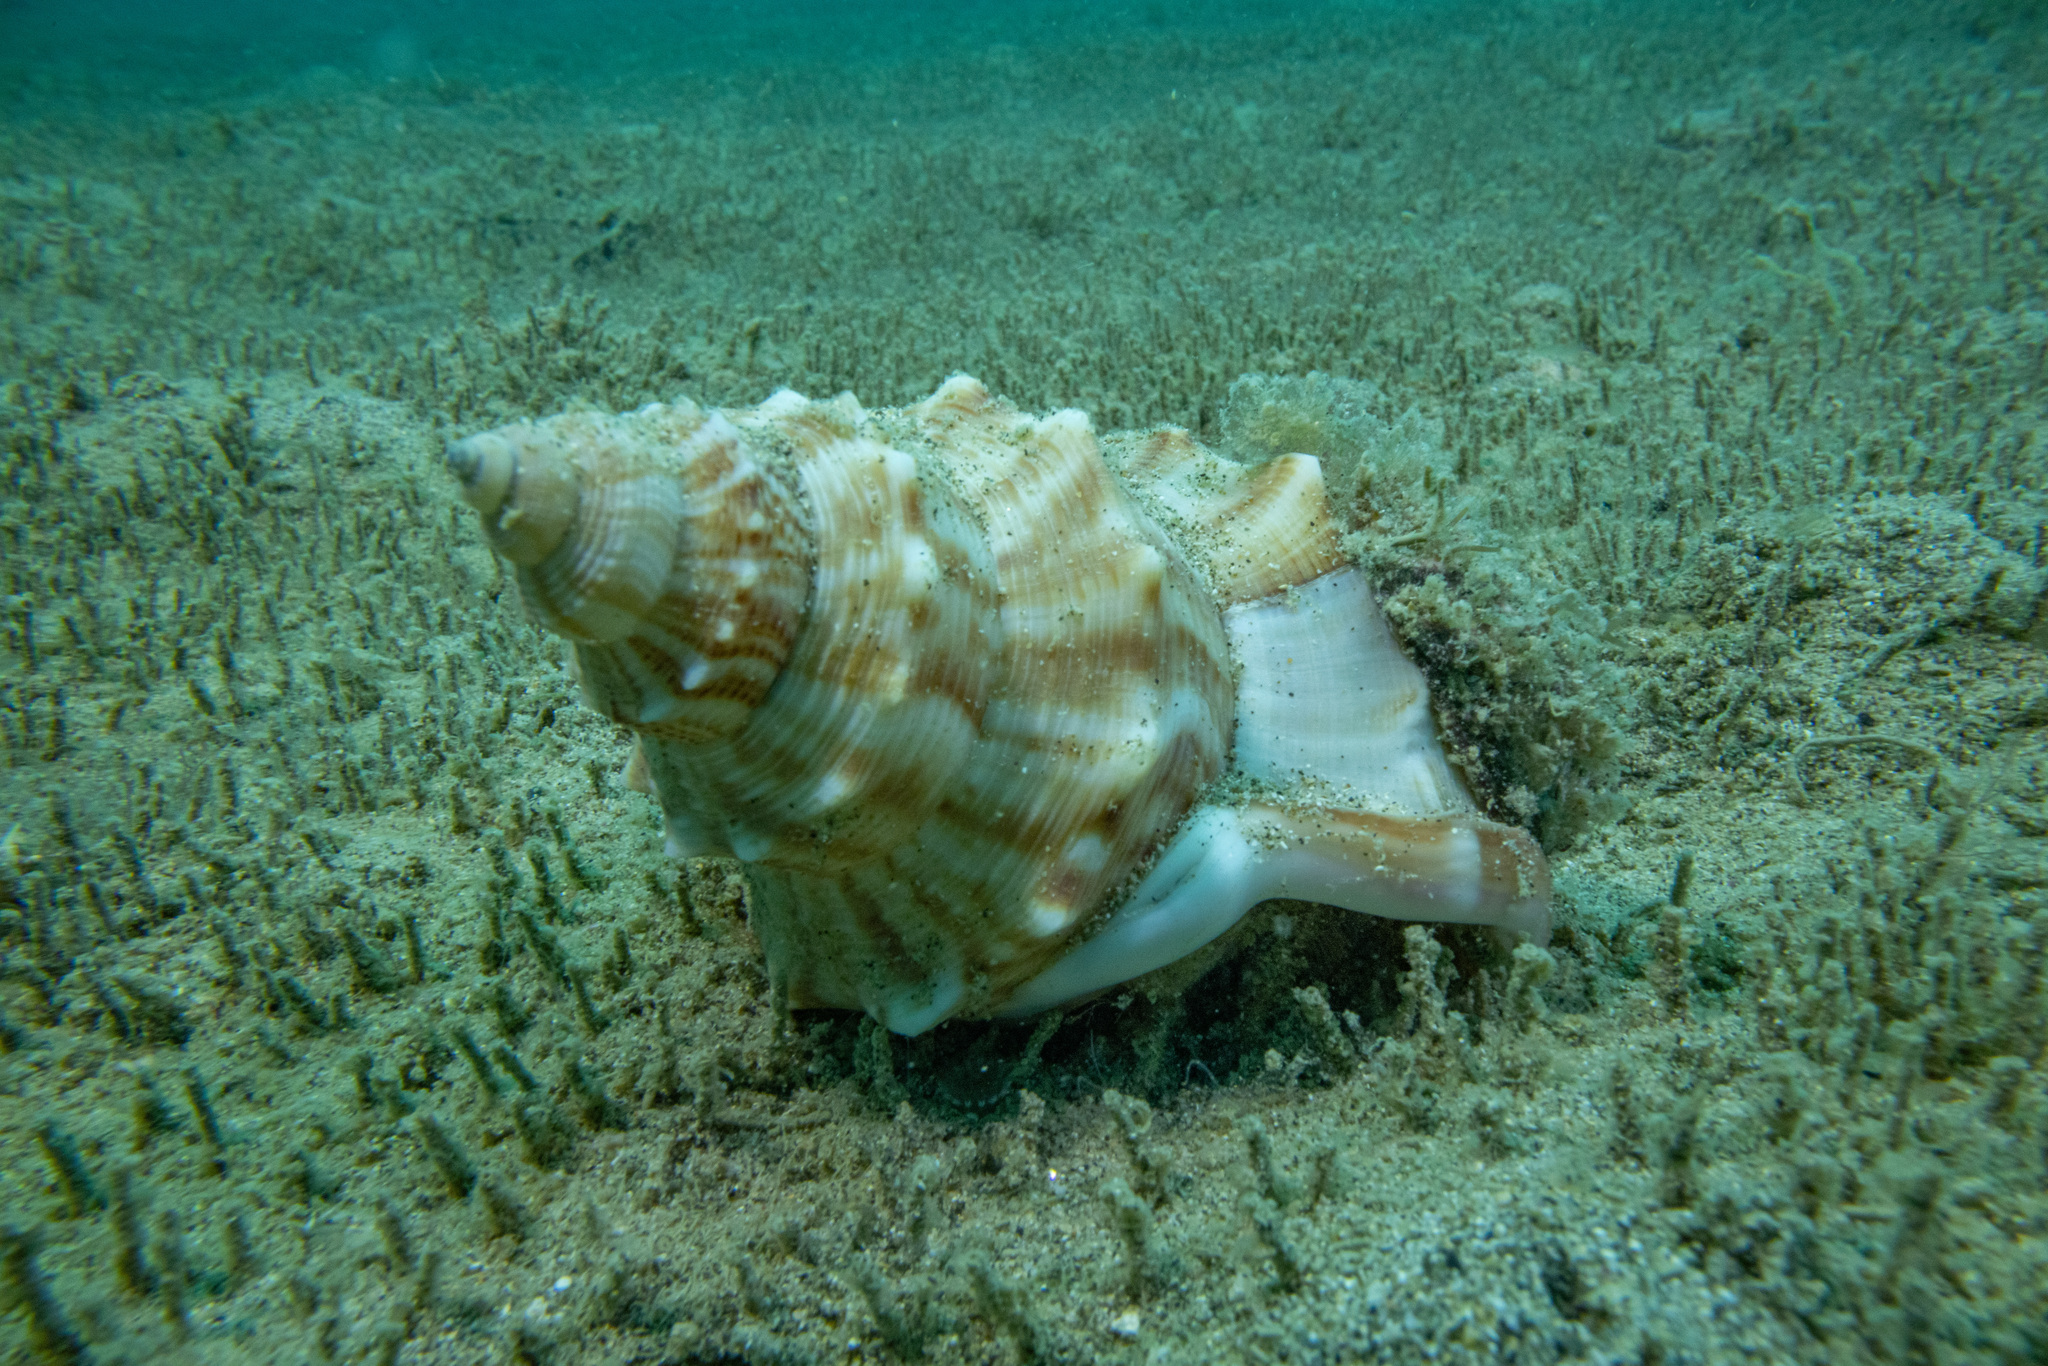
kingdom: Animalia
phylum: Mollusca
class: Gastropoda
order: Littorinimorpha
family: Struthiolariidae
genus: Struthiolaria
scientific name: Struthiolaria papulosa
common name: Large ostrich foot
